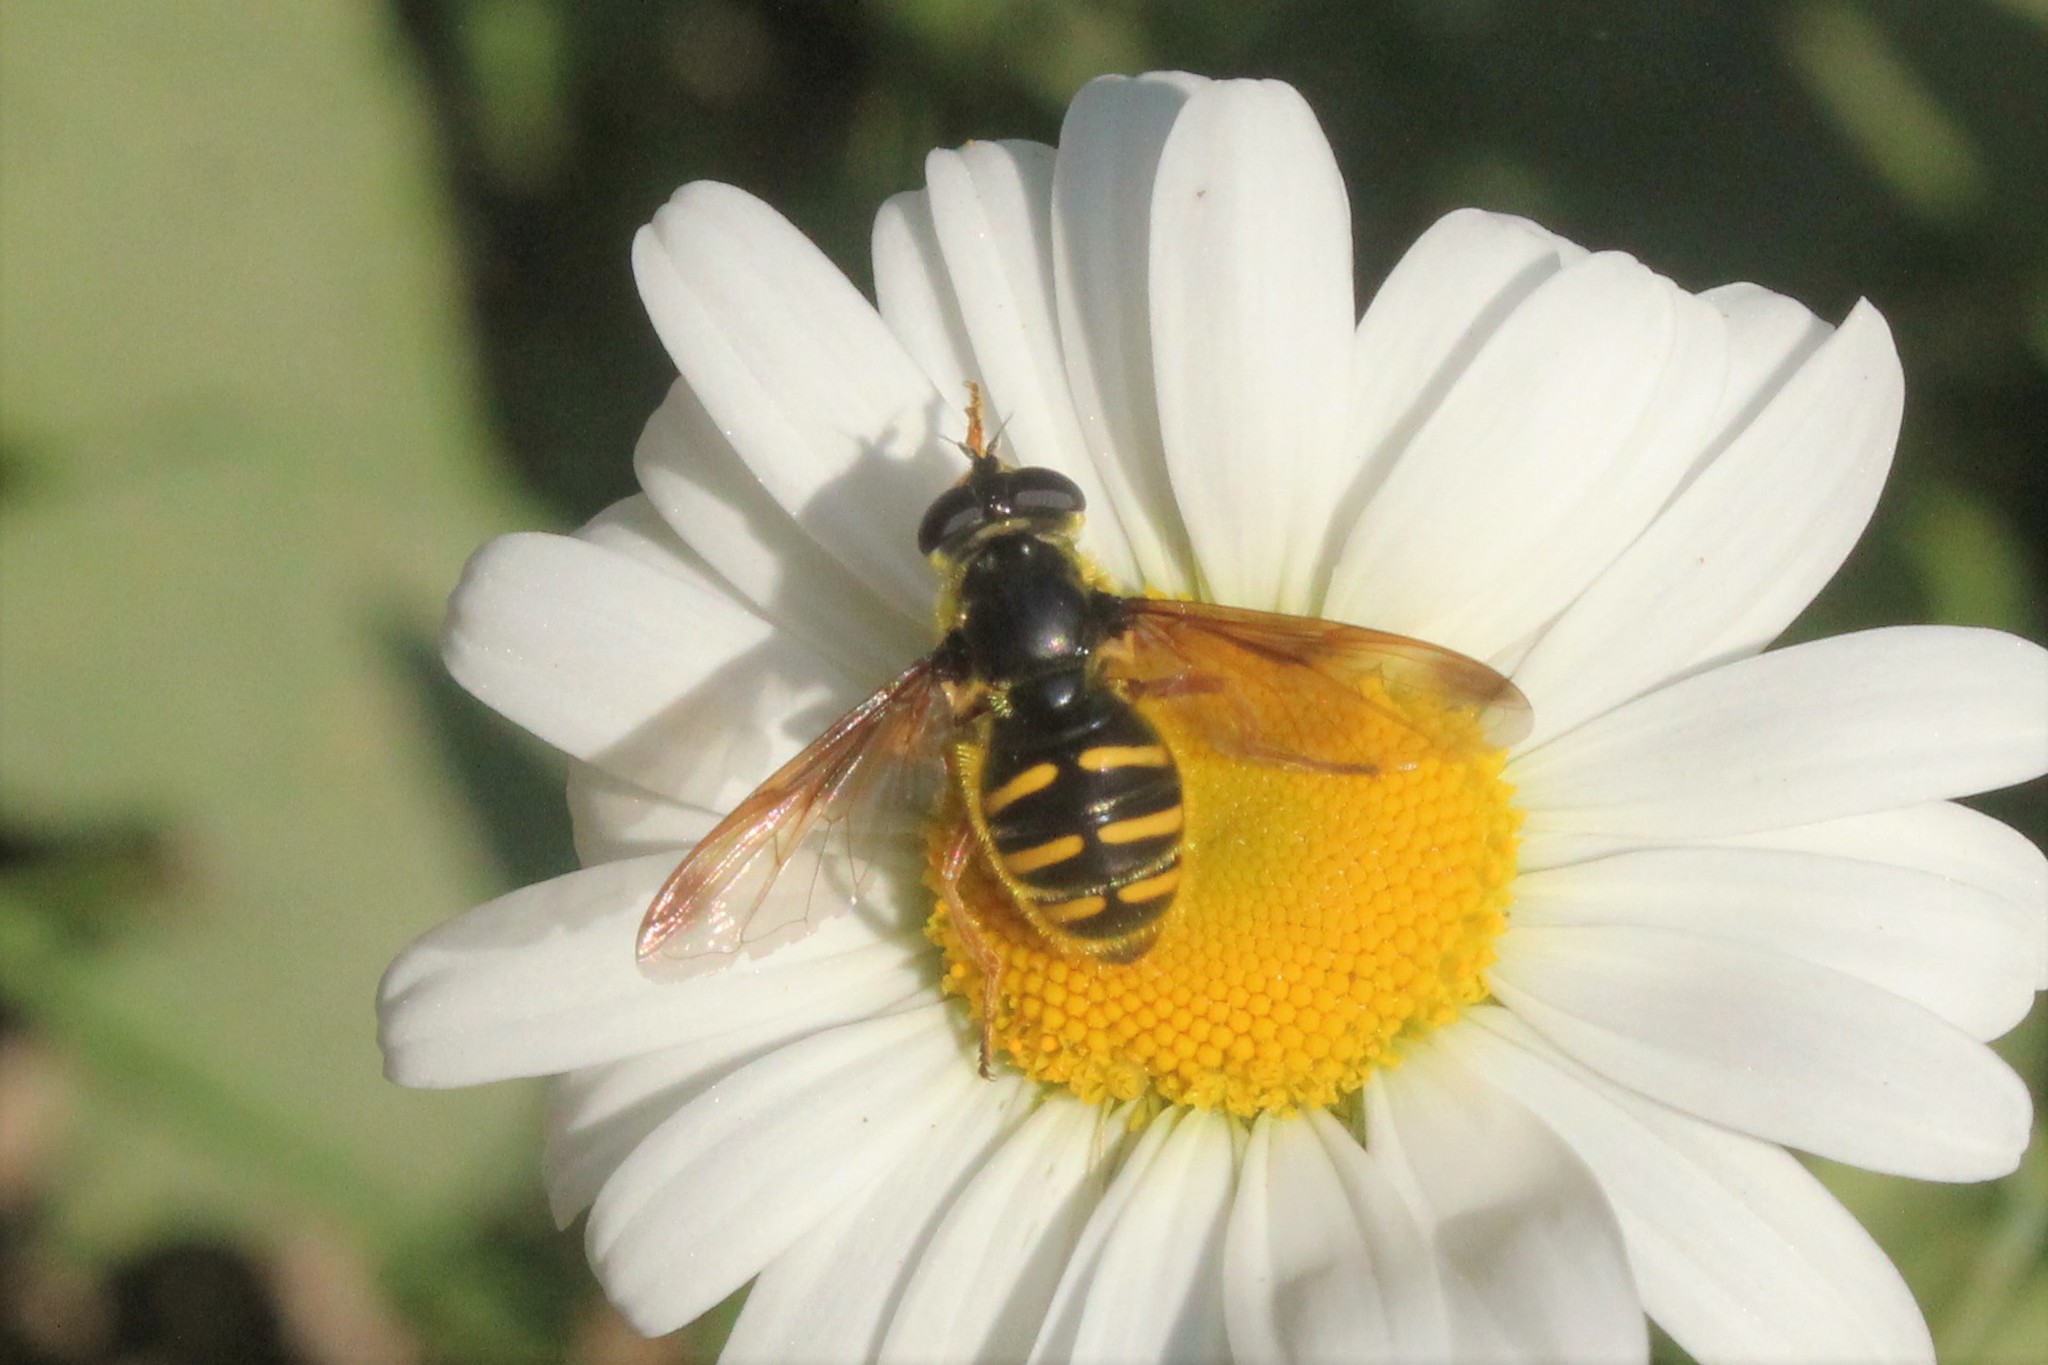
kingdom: Animalia
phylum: Arthropoda
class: Insecta
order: Diptera
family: Syrphidae
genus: Sericomyia
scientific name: Sericomyia chrysotoxoides
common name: Oblique-banded pond fly
